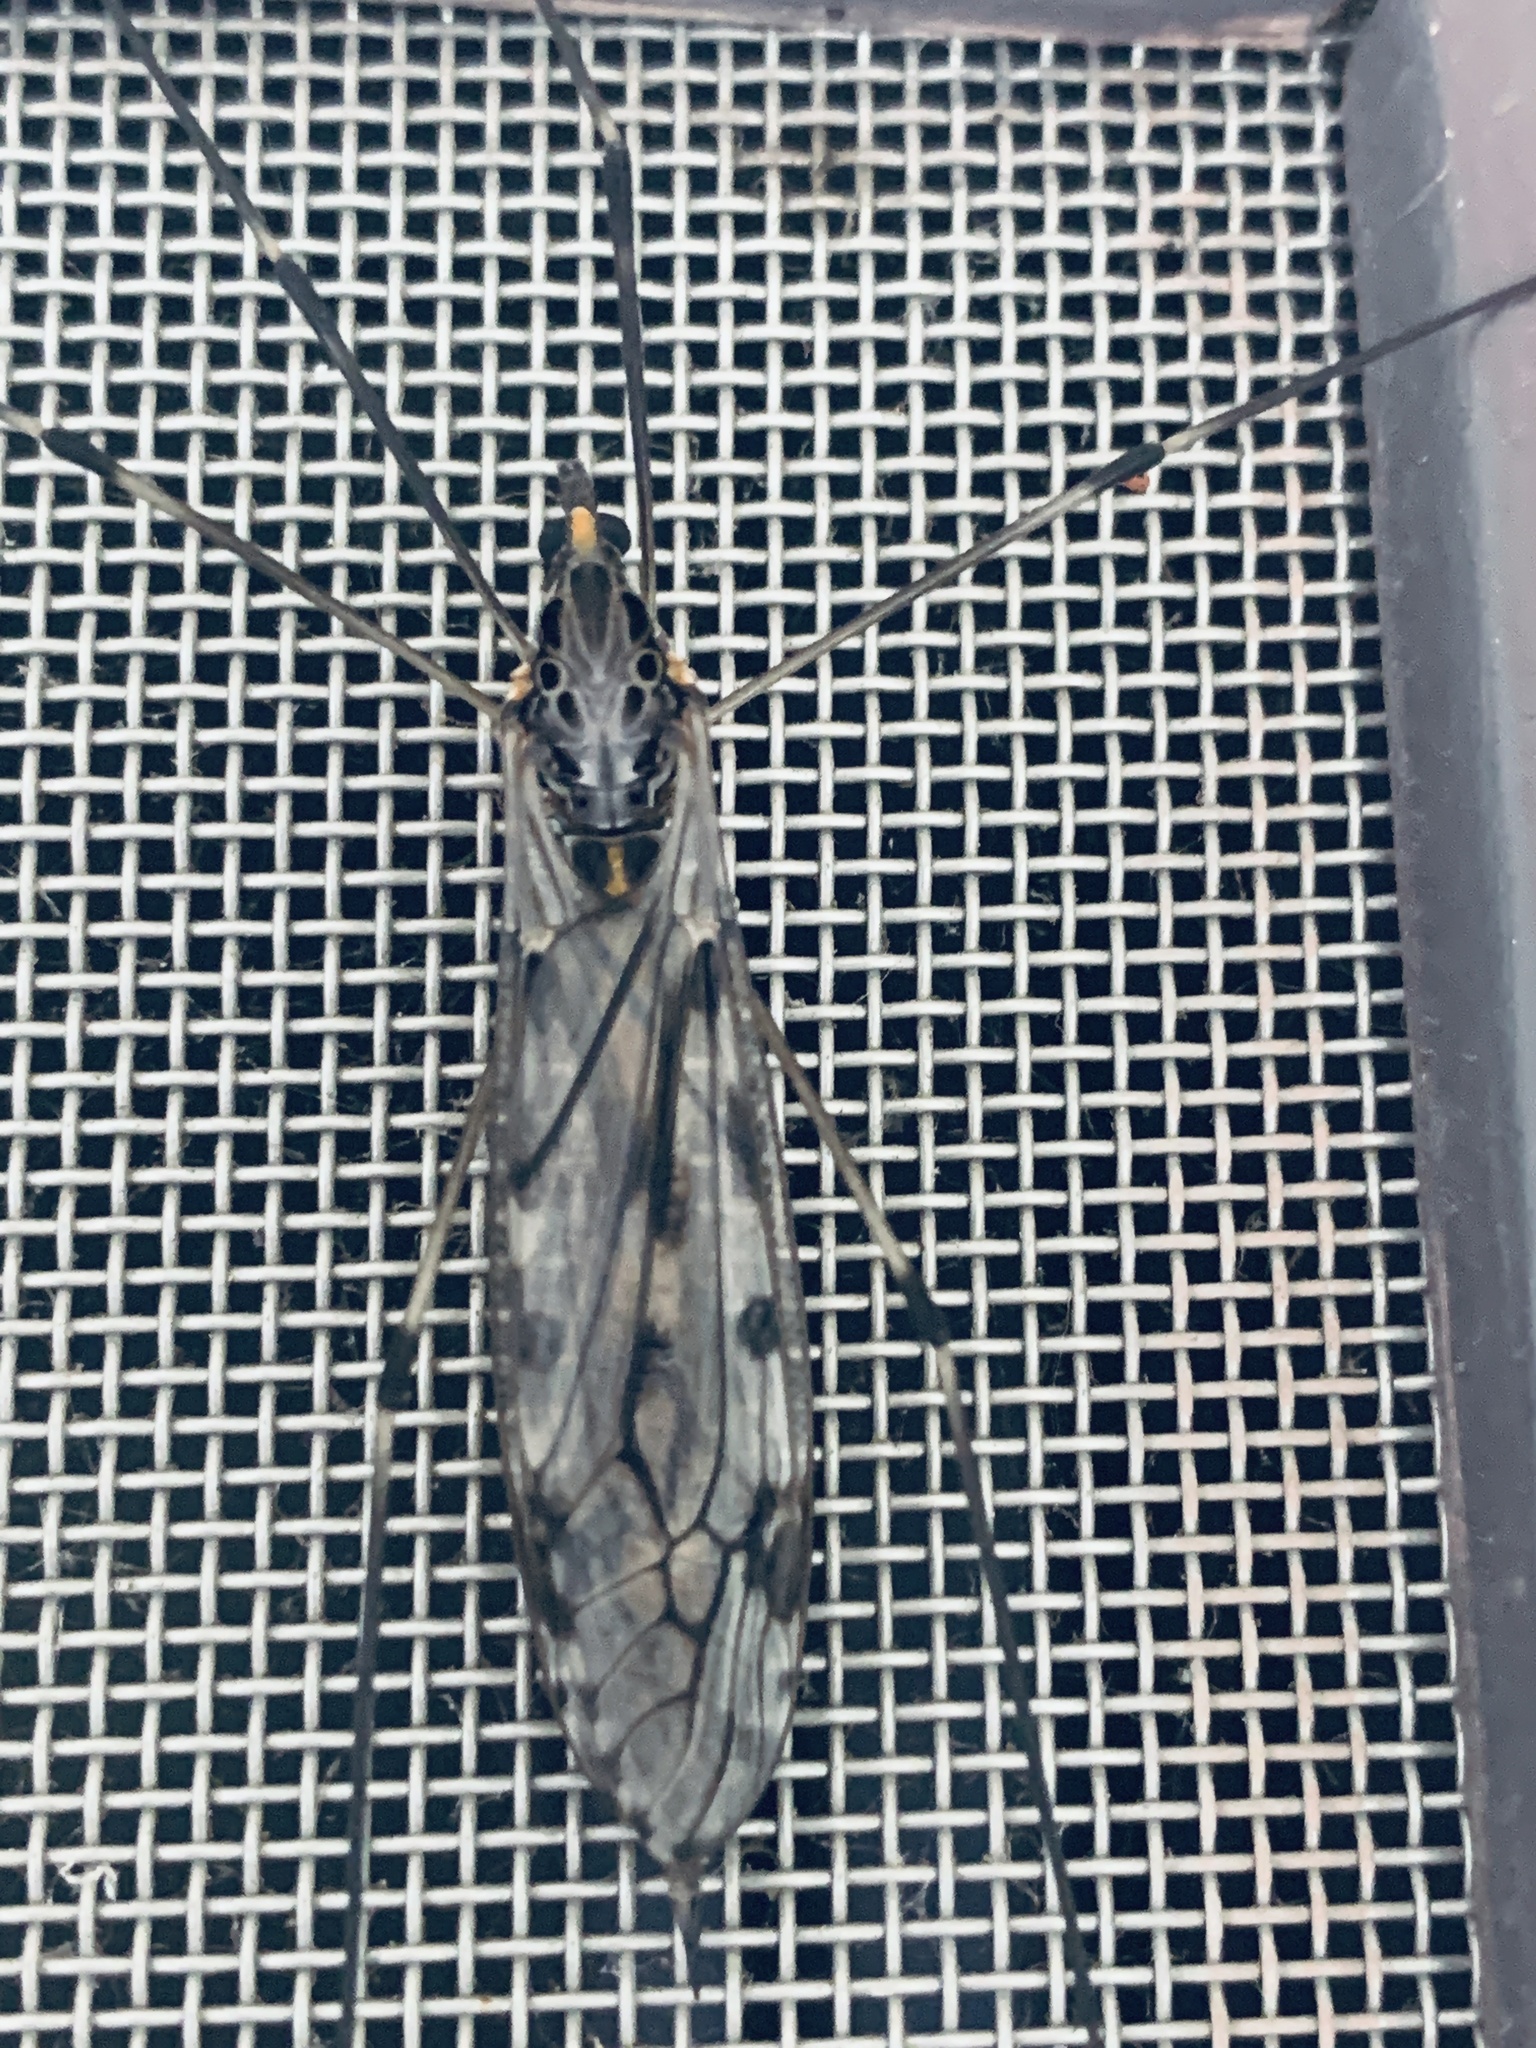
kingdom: Animalia
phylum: Arthropoda
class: Insecta
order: Diptera
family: Tipulidae
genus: Tipula
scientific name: Tipula abdominalis
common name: Giant crane fly
